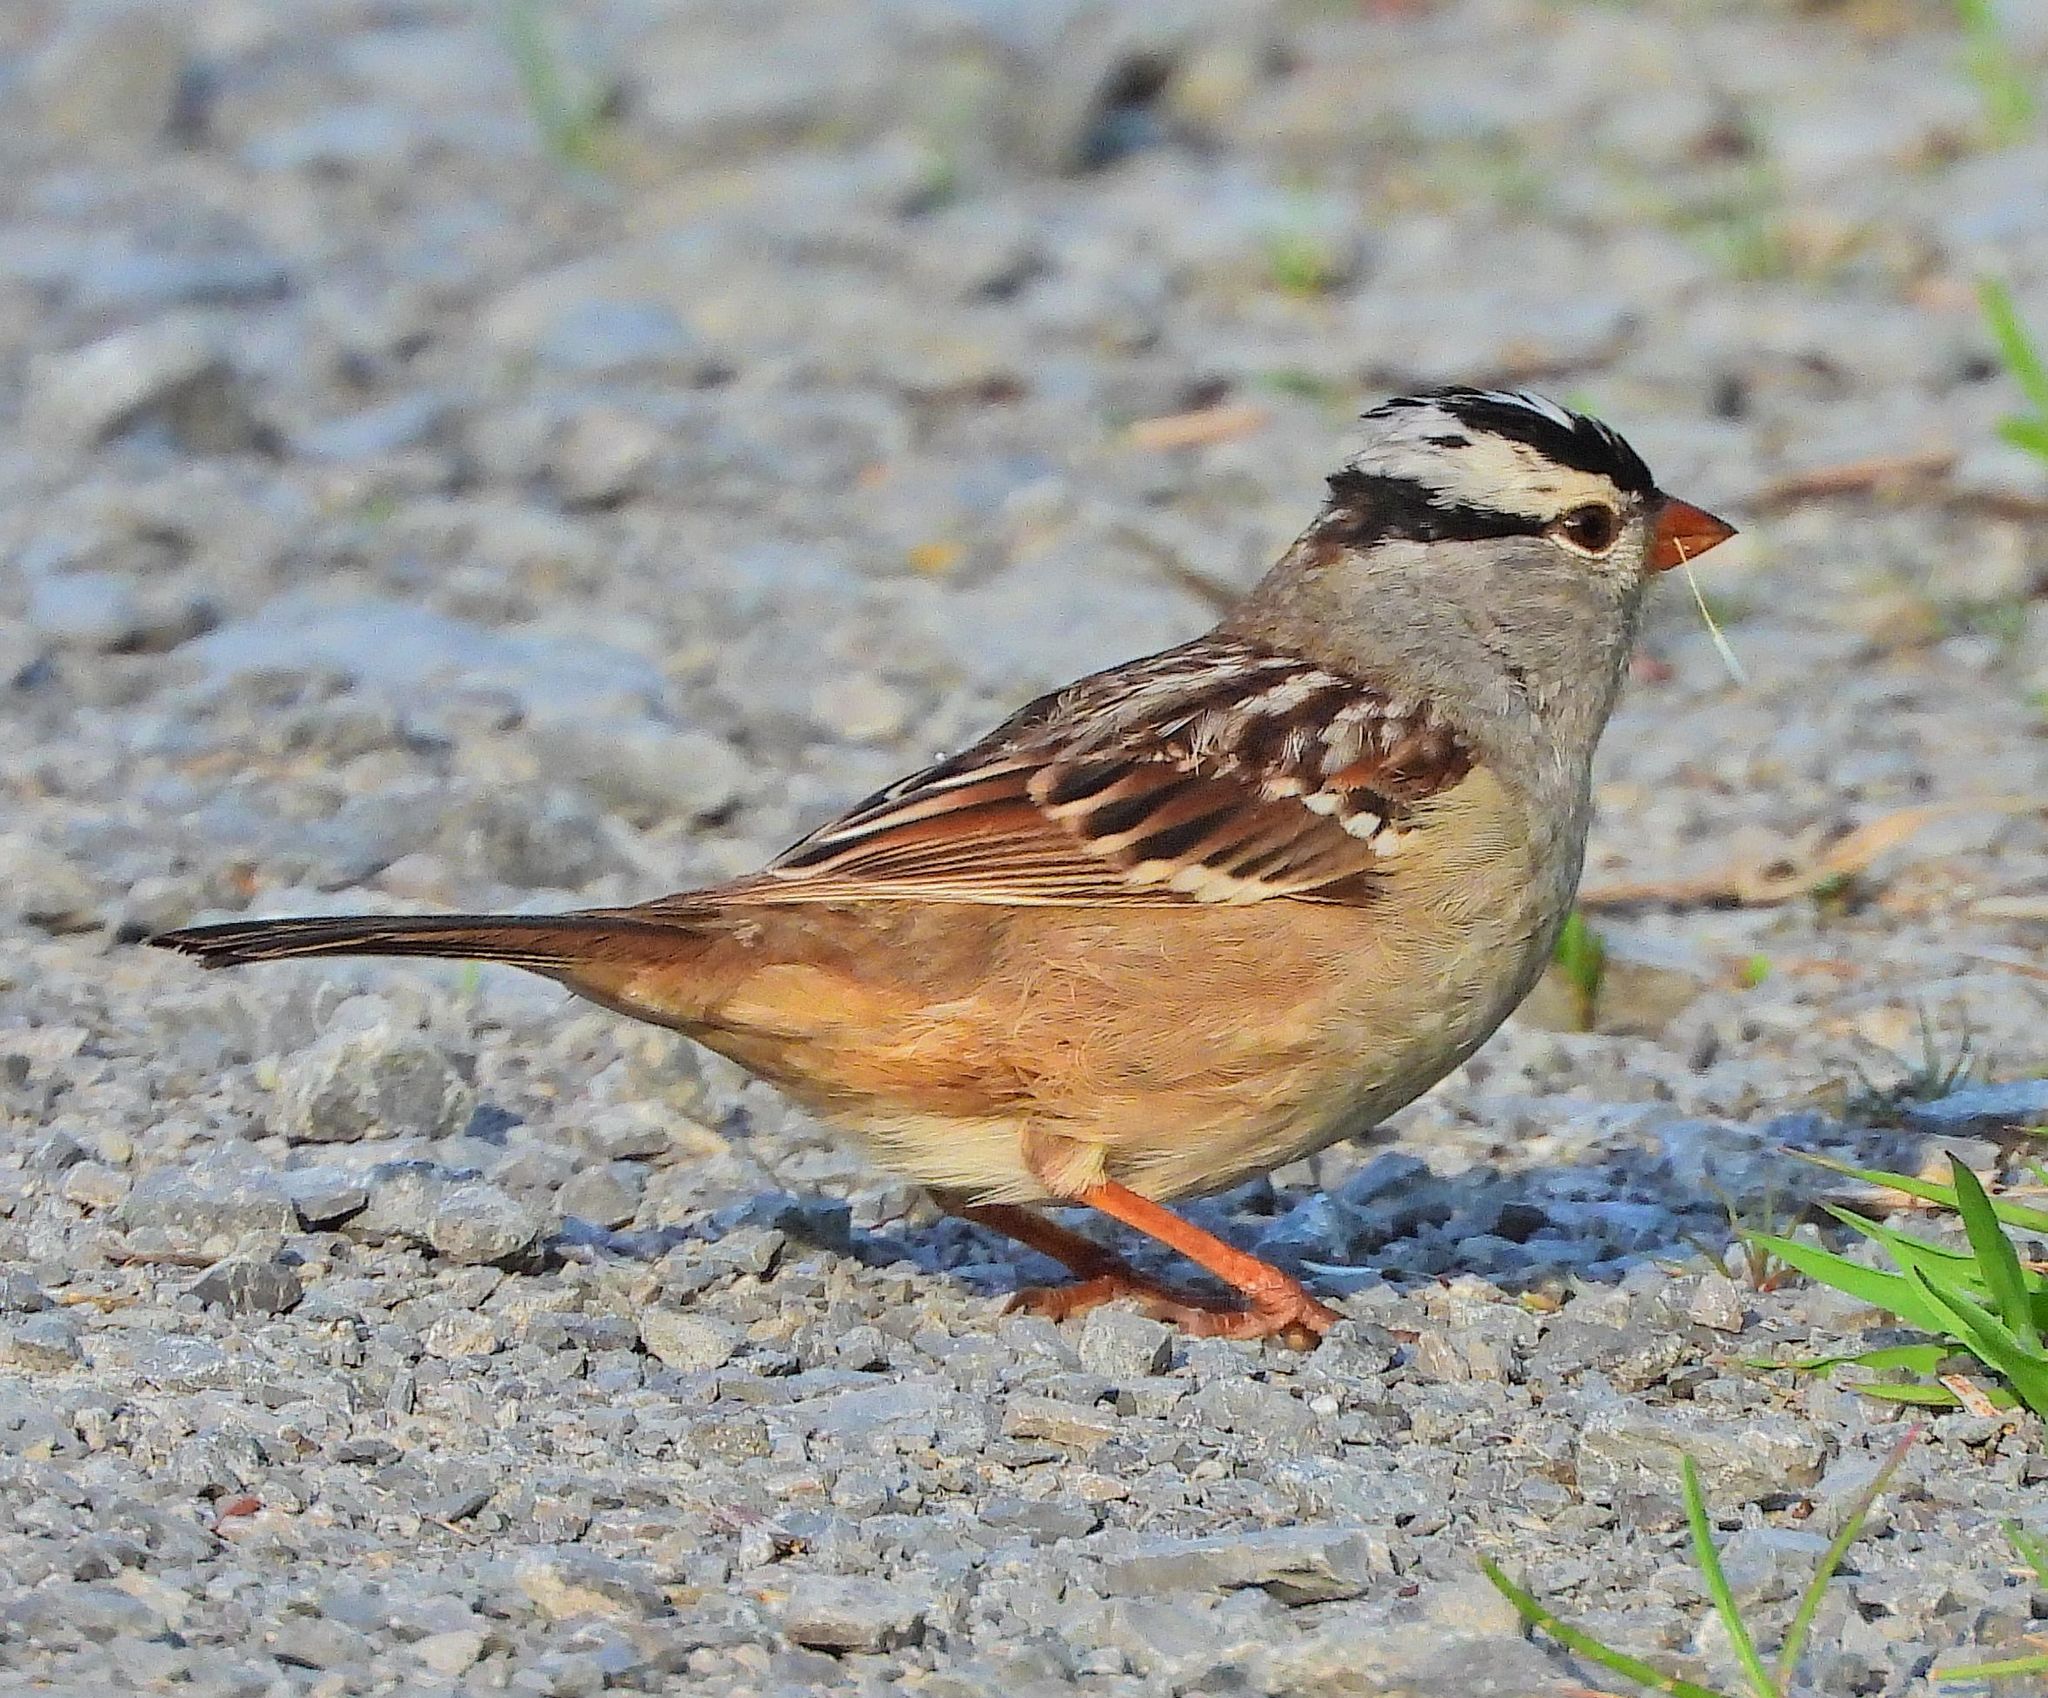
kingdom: Animalia
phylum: Chordata
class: Aves
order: Passeriformes
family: Passerellidae
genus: Zonotrichia
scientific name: Zonotrichia leucophrys
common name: White-crowned sparrow
